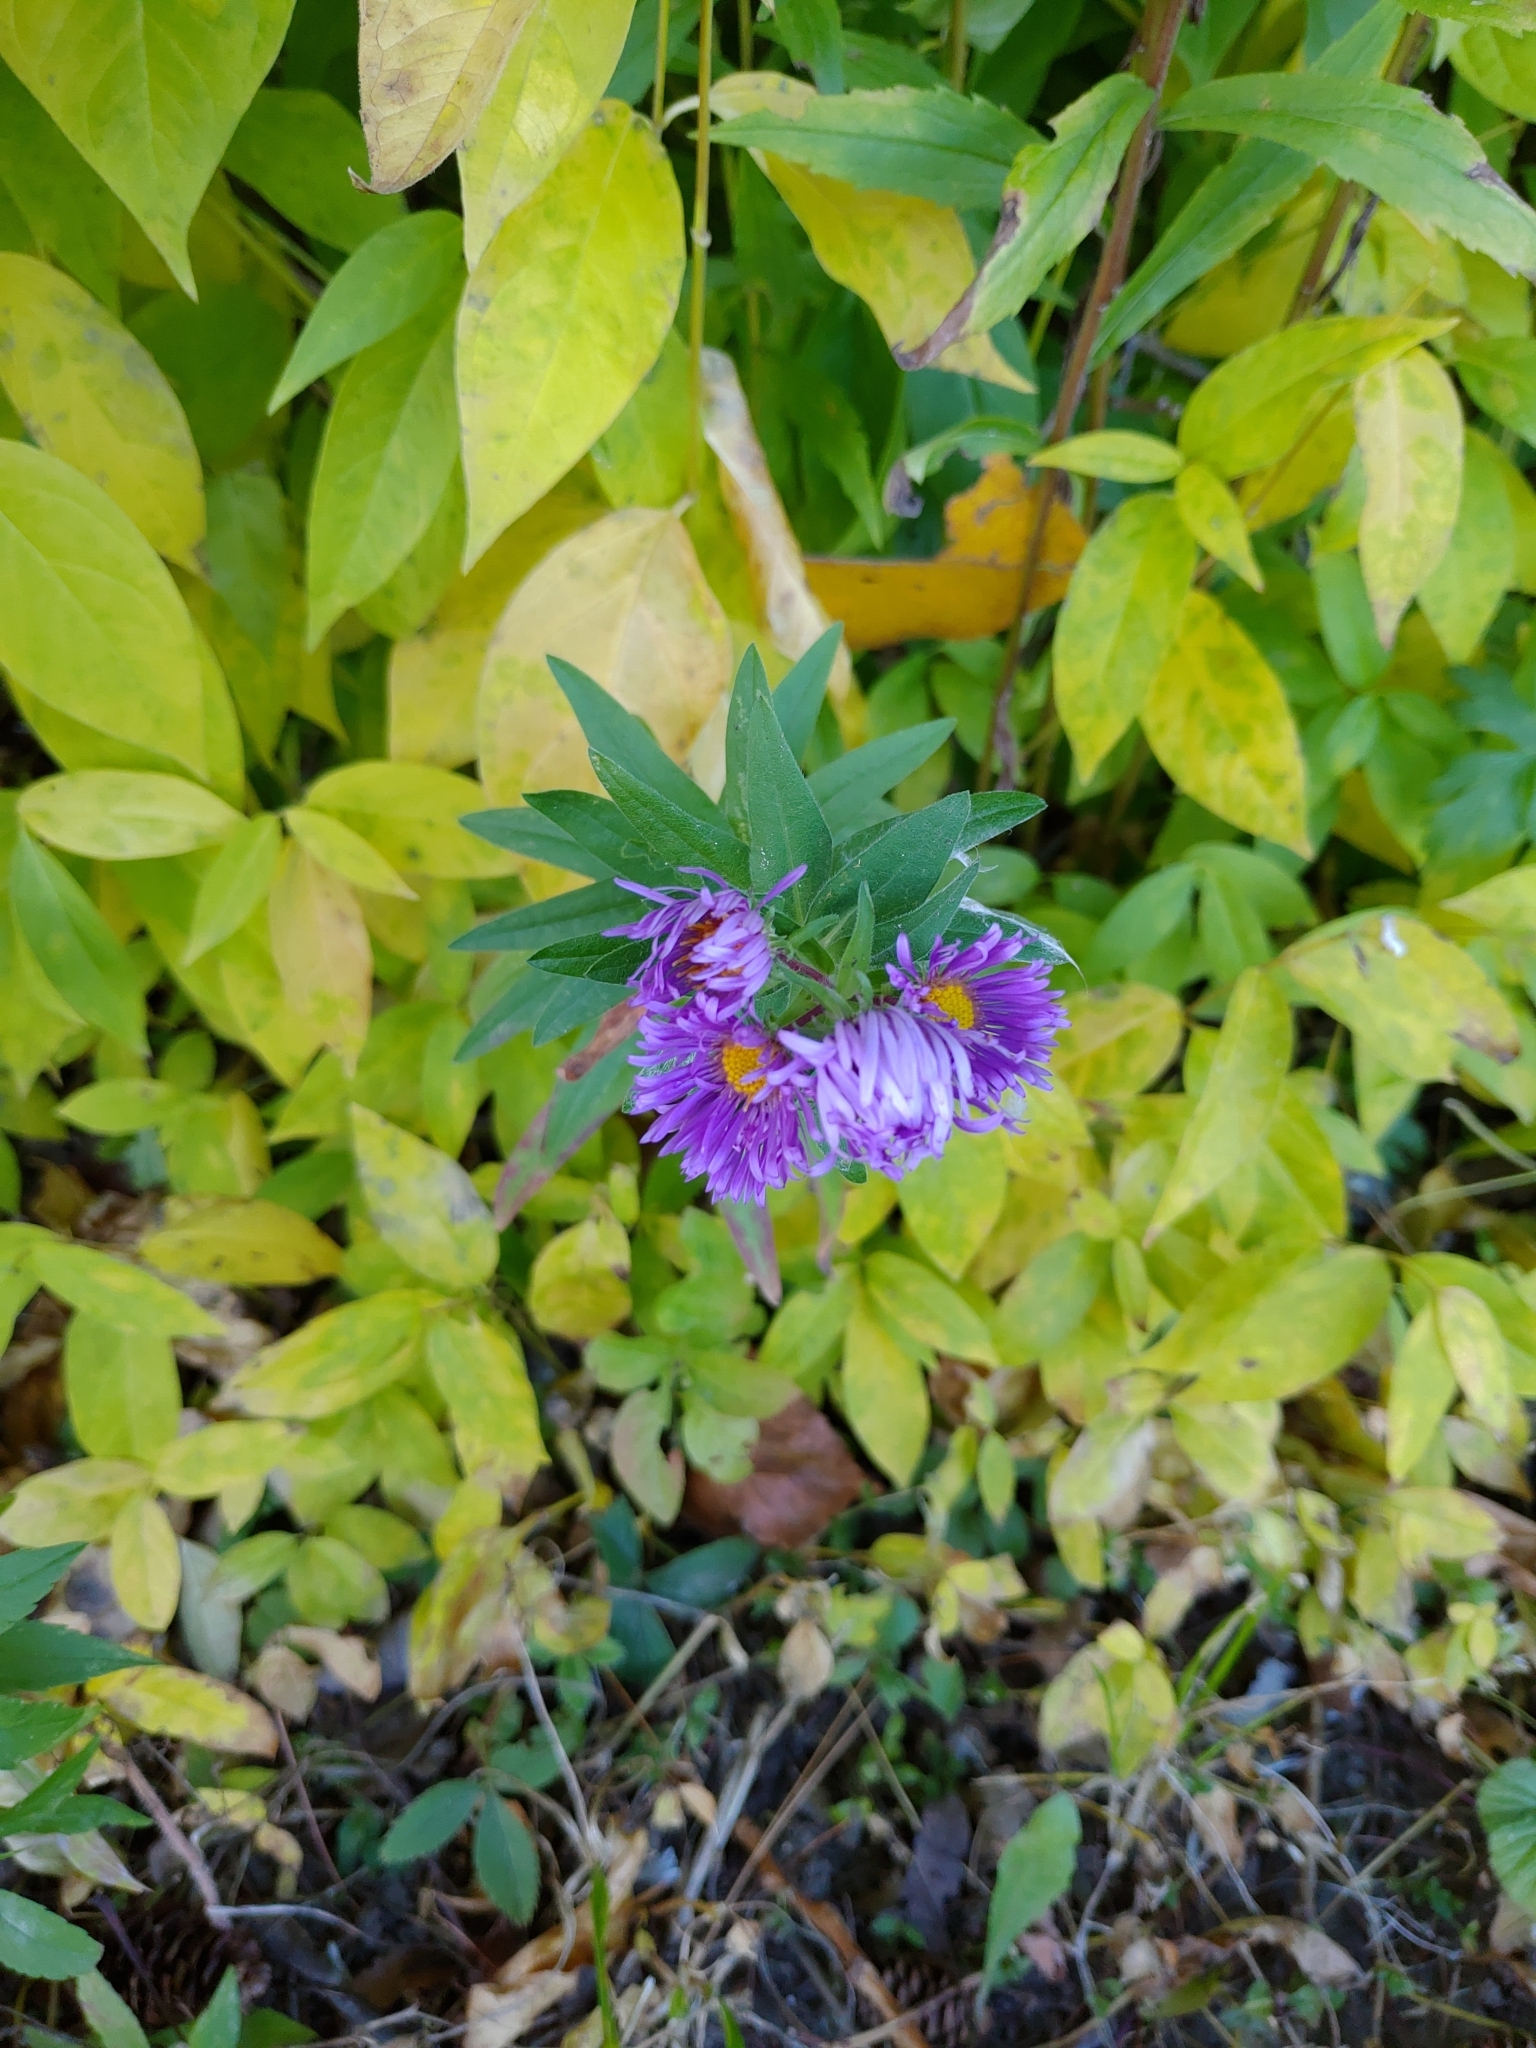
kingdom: Plantae
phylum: Tracheophyta
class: Magnoliopsida
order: Asterales
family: Asteraceae
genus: Symphyotrichum
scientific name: Symphyotrichum novae-angliae
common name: Michaelmas daisy
